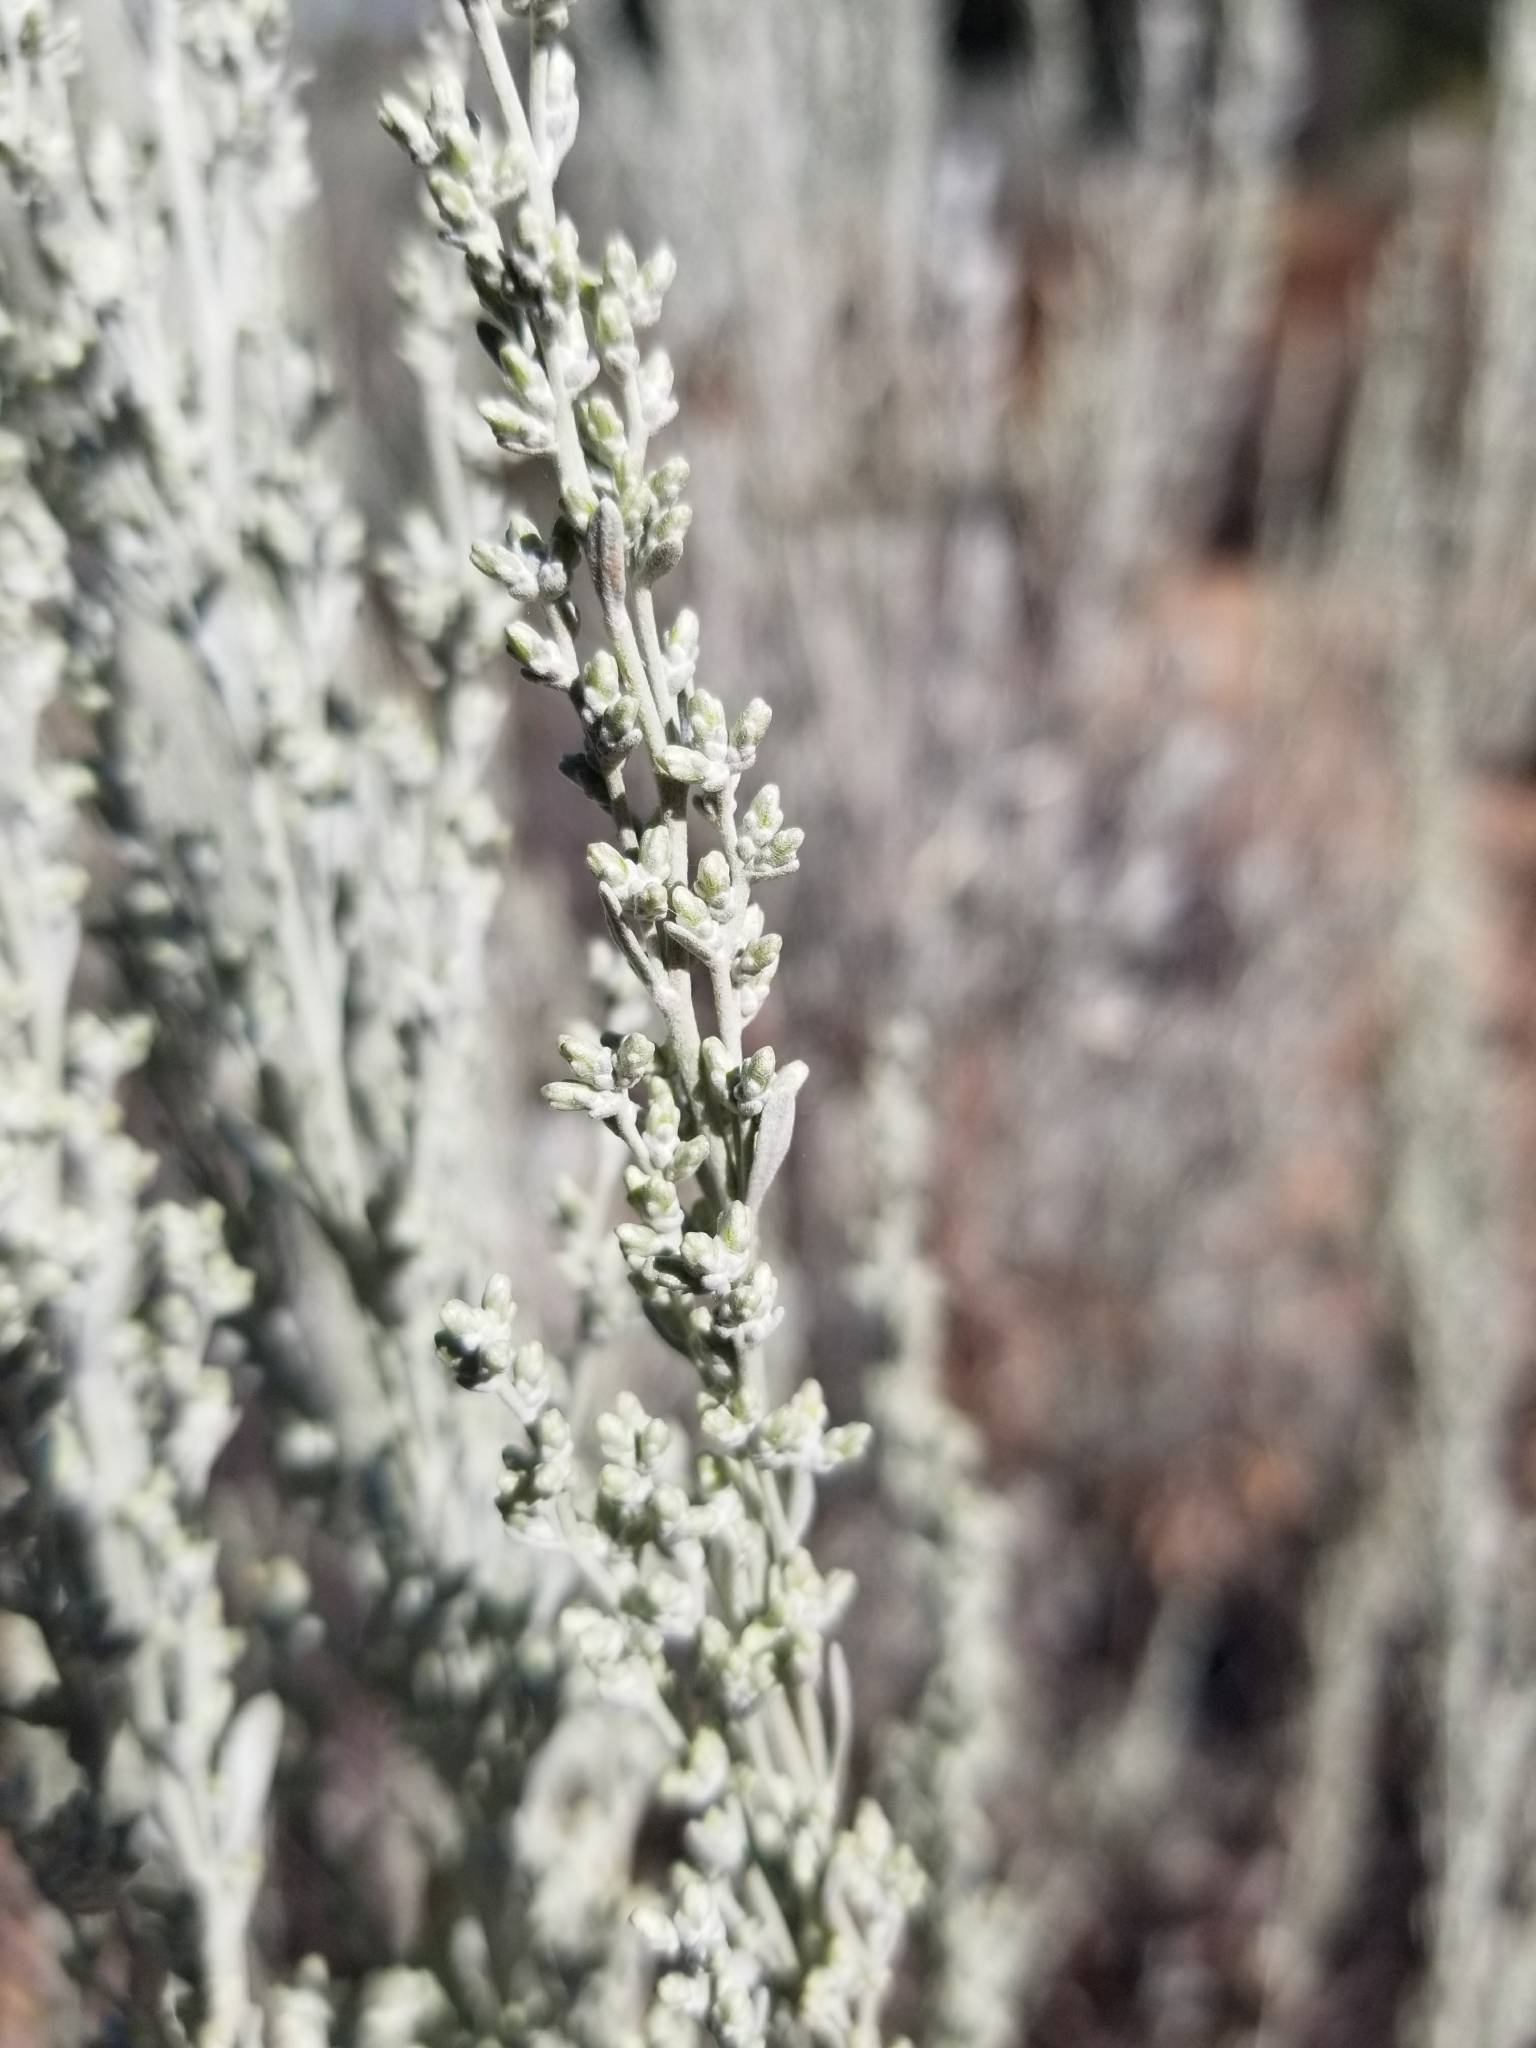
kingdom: Plantae
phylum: Tracheophyta
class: Magnoliopsida
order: Asterales
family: Asteraceae
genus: Artemisia
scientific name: Artemisia tridentata
